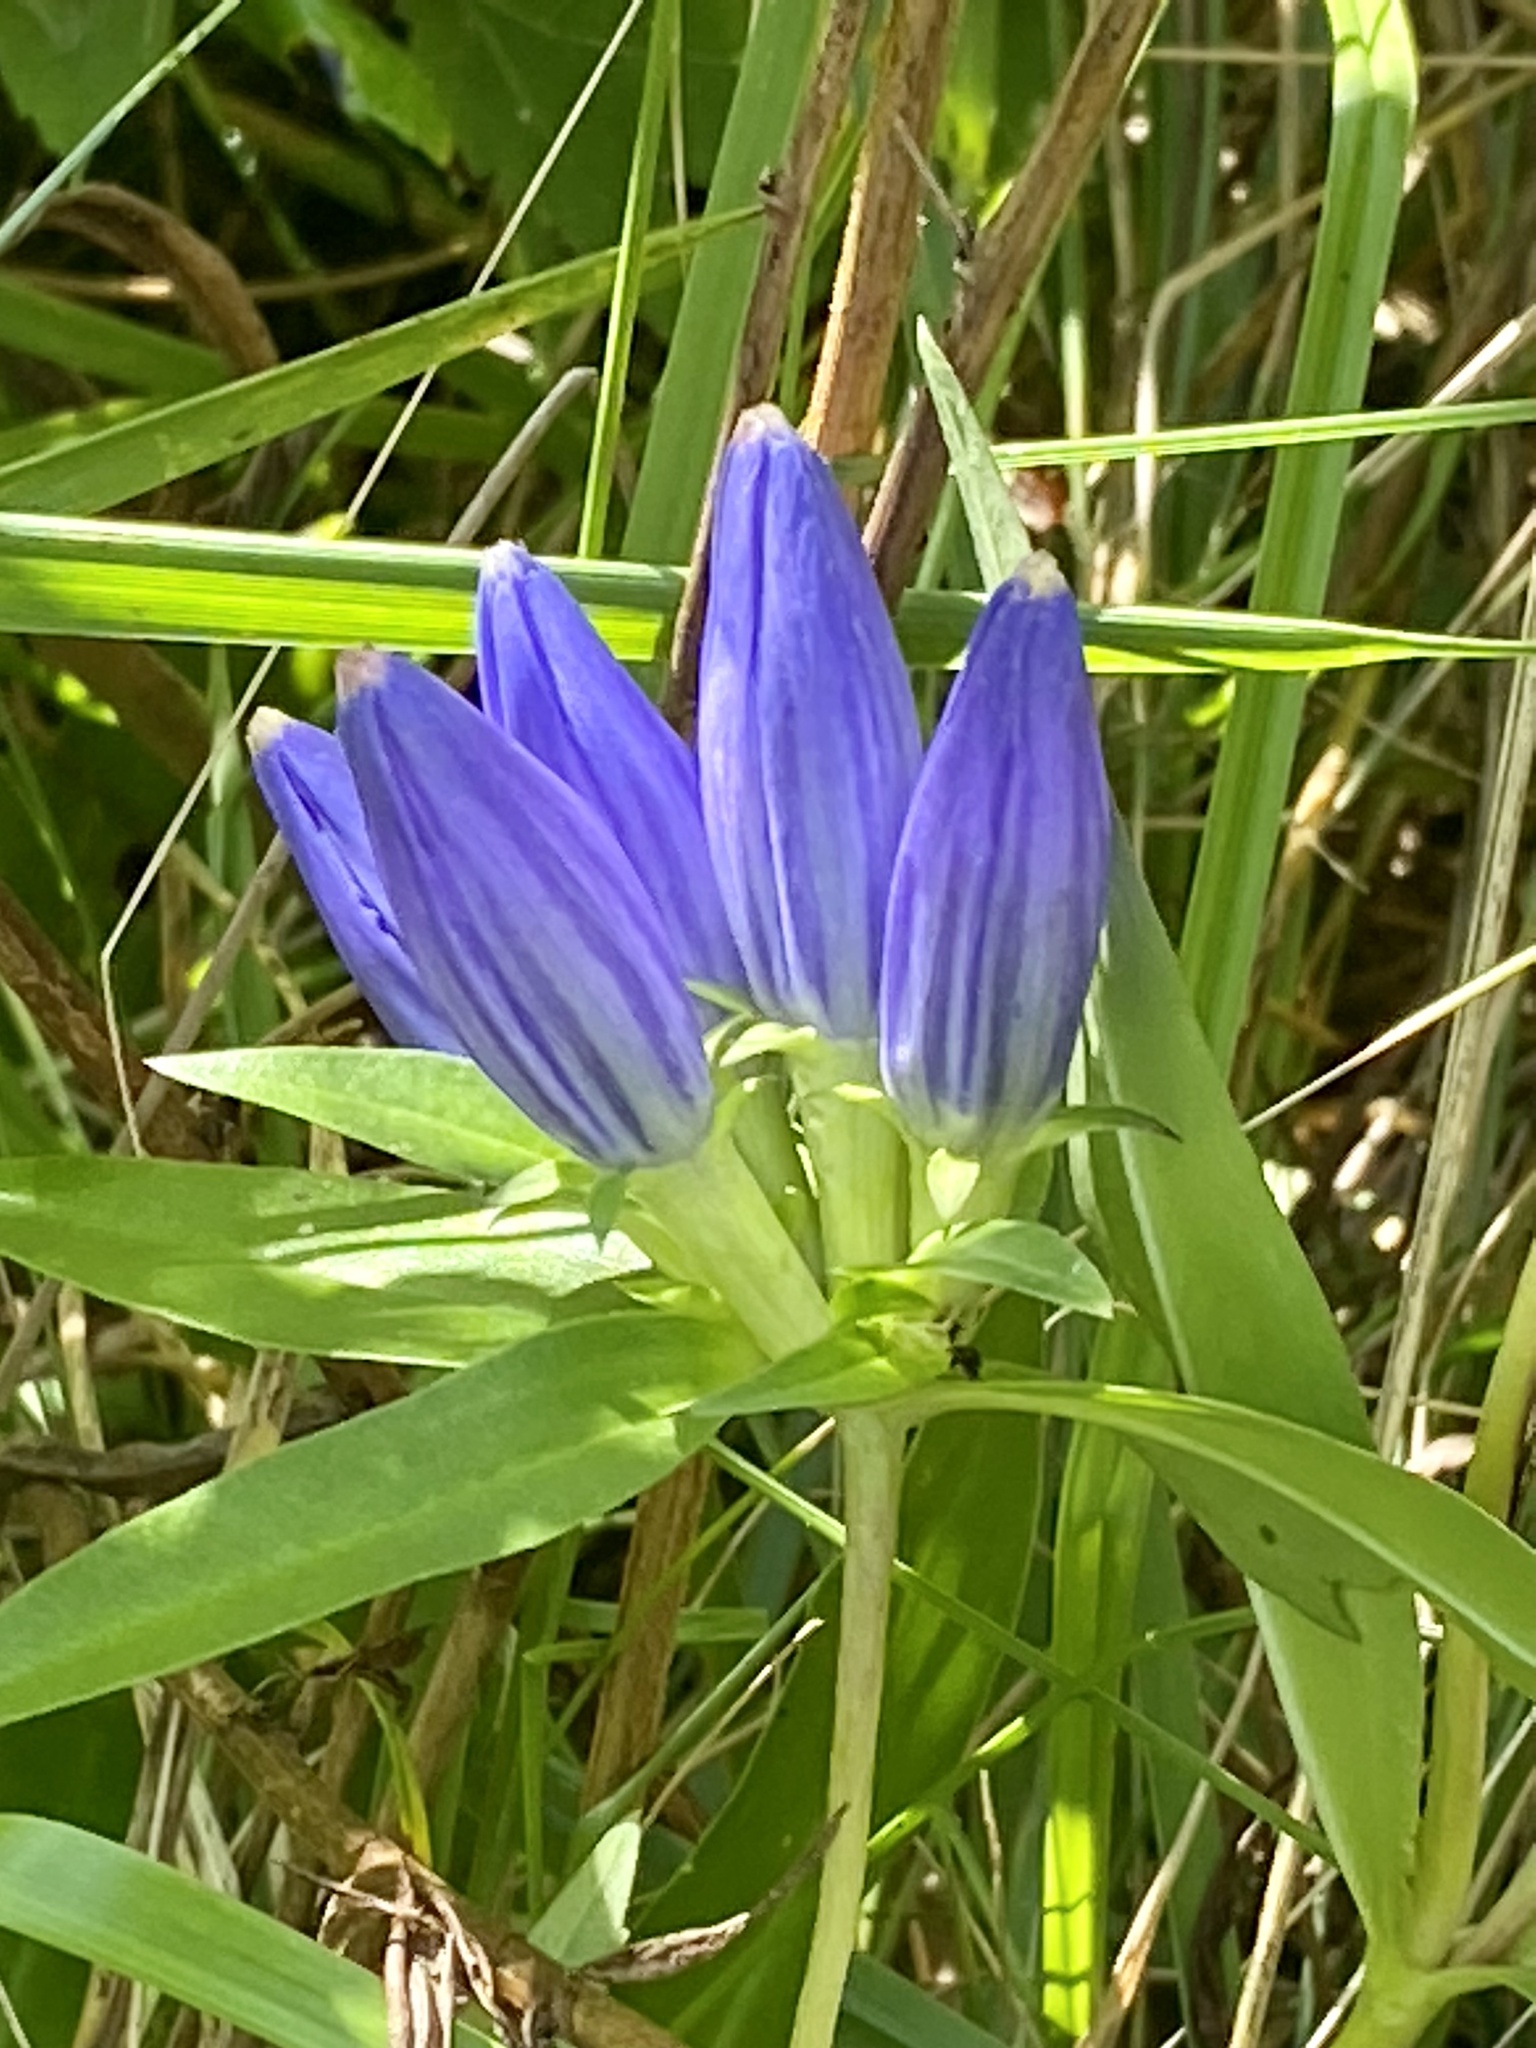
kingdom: Plantae
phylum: Tracheophyta
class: Magnoliopsida
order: Gentianales
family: Gentianaceae
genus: Gentiana
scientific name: Gentiana andrewsii
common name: Bottle gentian
